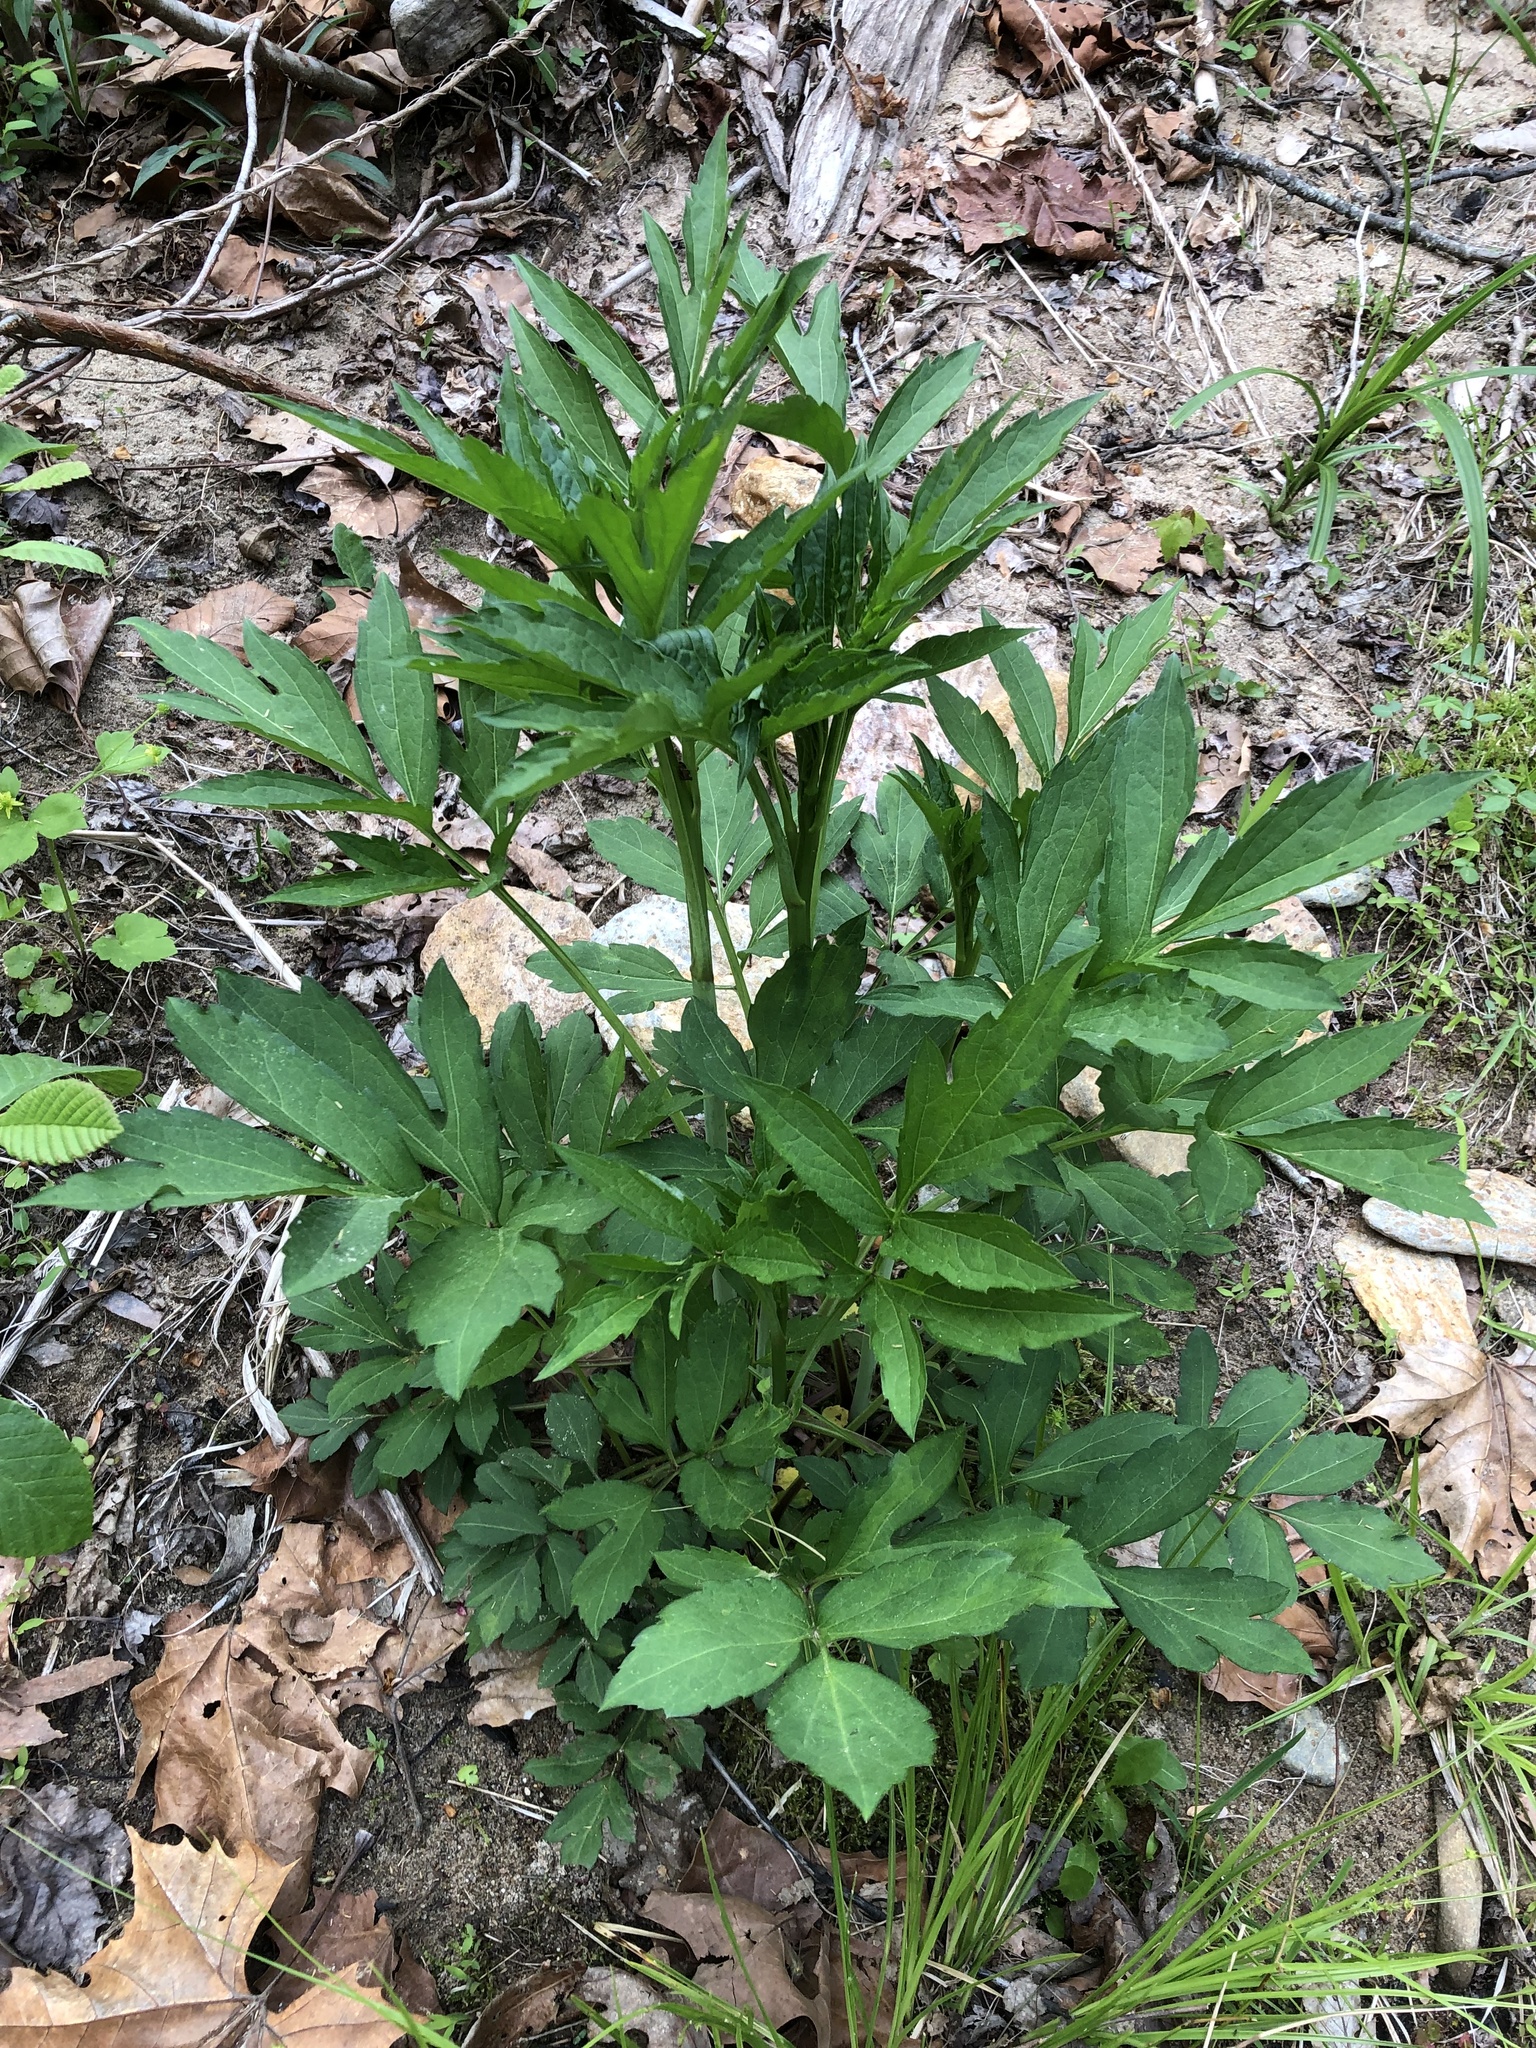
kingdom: Plantae
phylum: Tracheophyta
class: Magnoliopsida
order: Asterales
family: Asteraceae
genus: Rudbeckia
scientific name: Rudbeckia laciniata
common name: Coneflower
